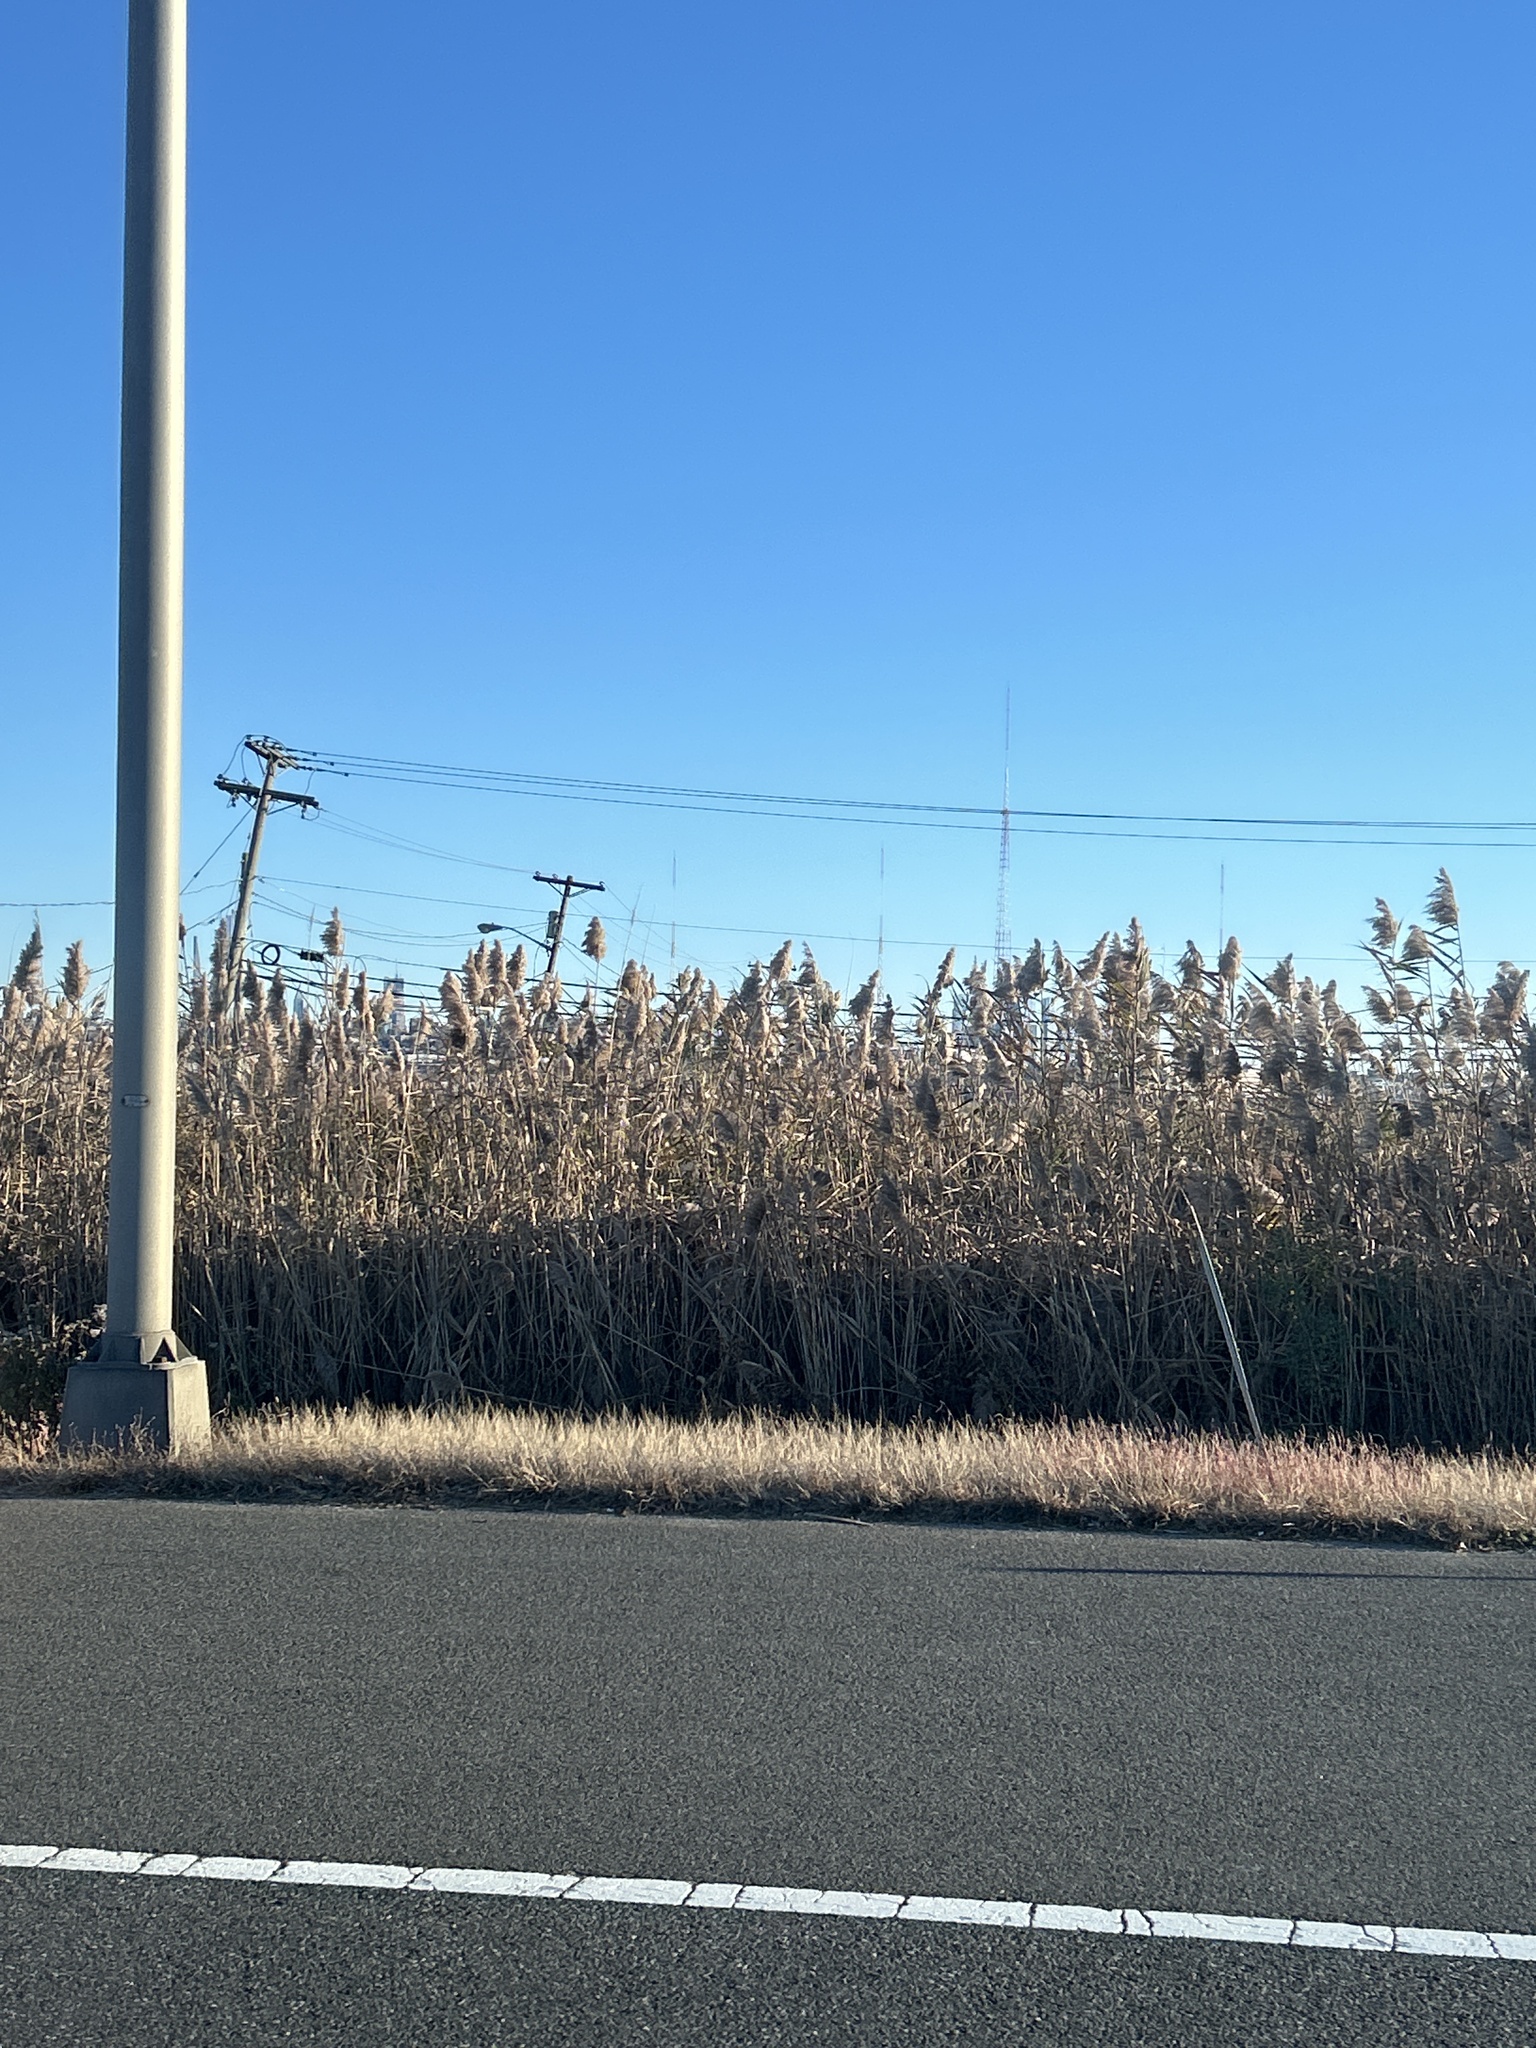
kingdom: Plantae
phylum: Tracheophyta
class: Liliopsida
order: Poales
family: Poaceae
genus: Phragmites
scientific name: Phragmites australis
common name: Common reed
